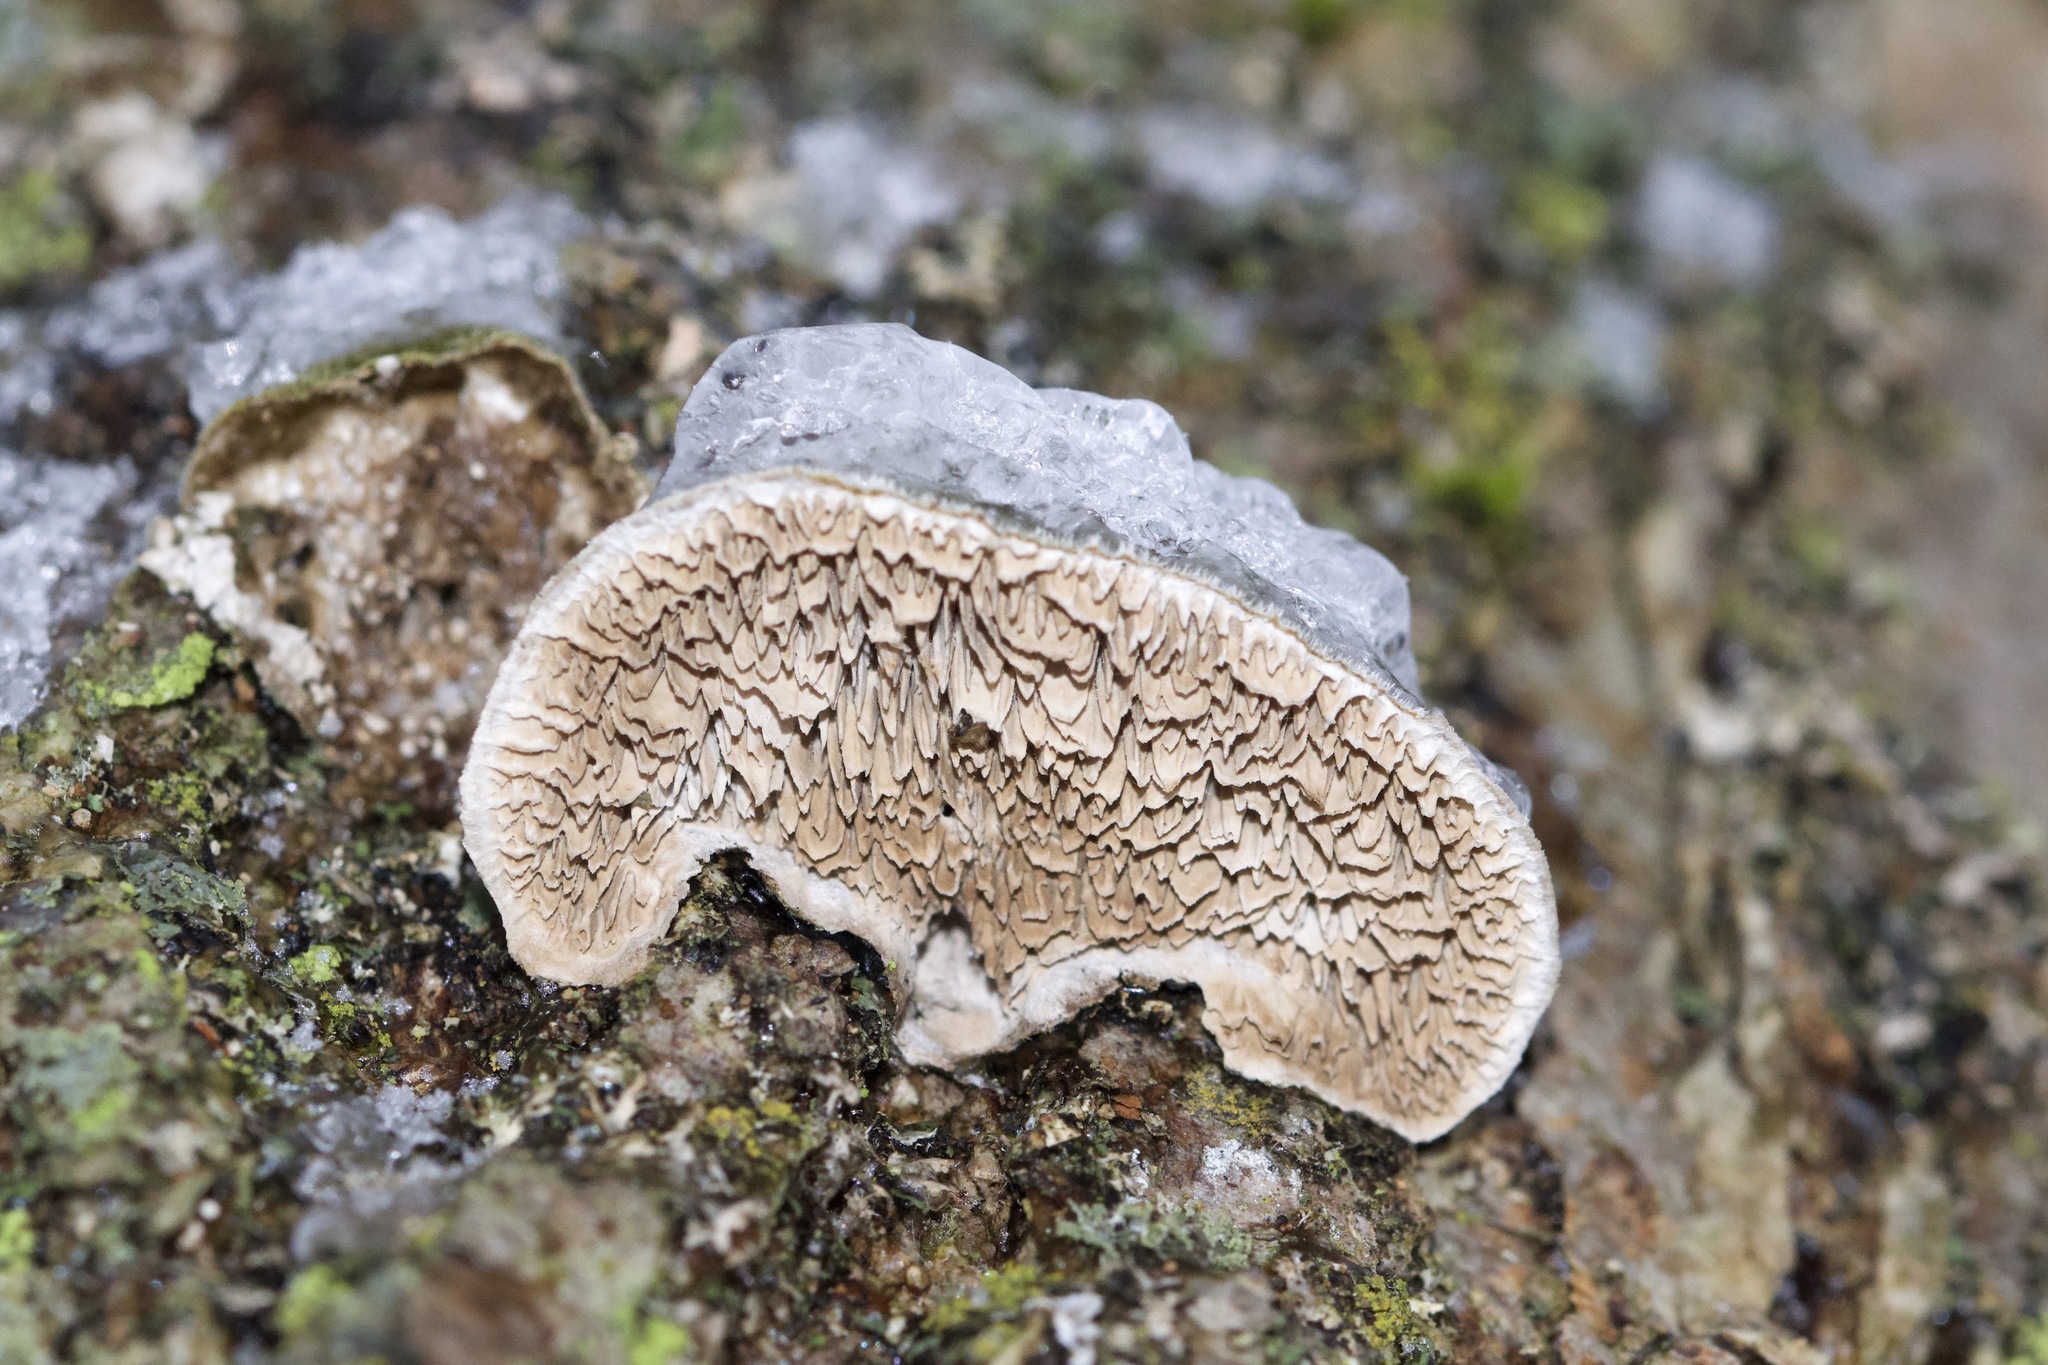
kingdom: Fungi
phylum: Basidiomycota
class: Agaricomycetes
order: Polyporales
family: Cerrenaceae
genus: Cerrena
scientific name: Cerrena unicolor
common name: Mossy maze polypore
